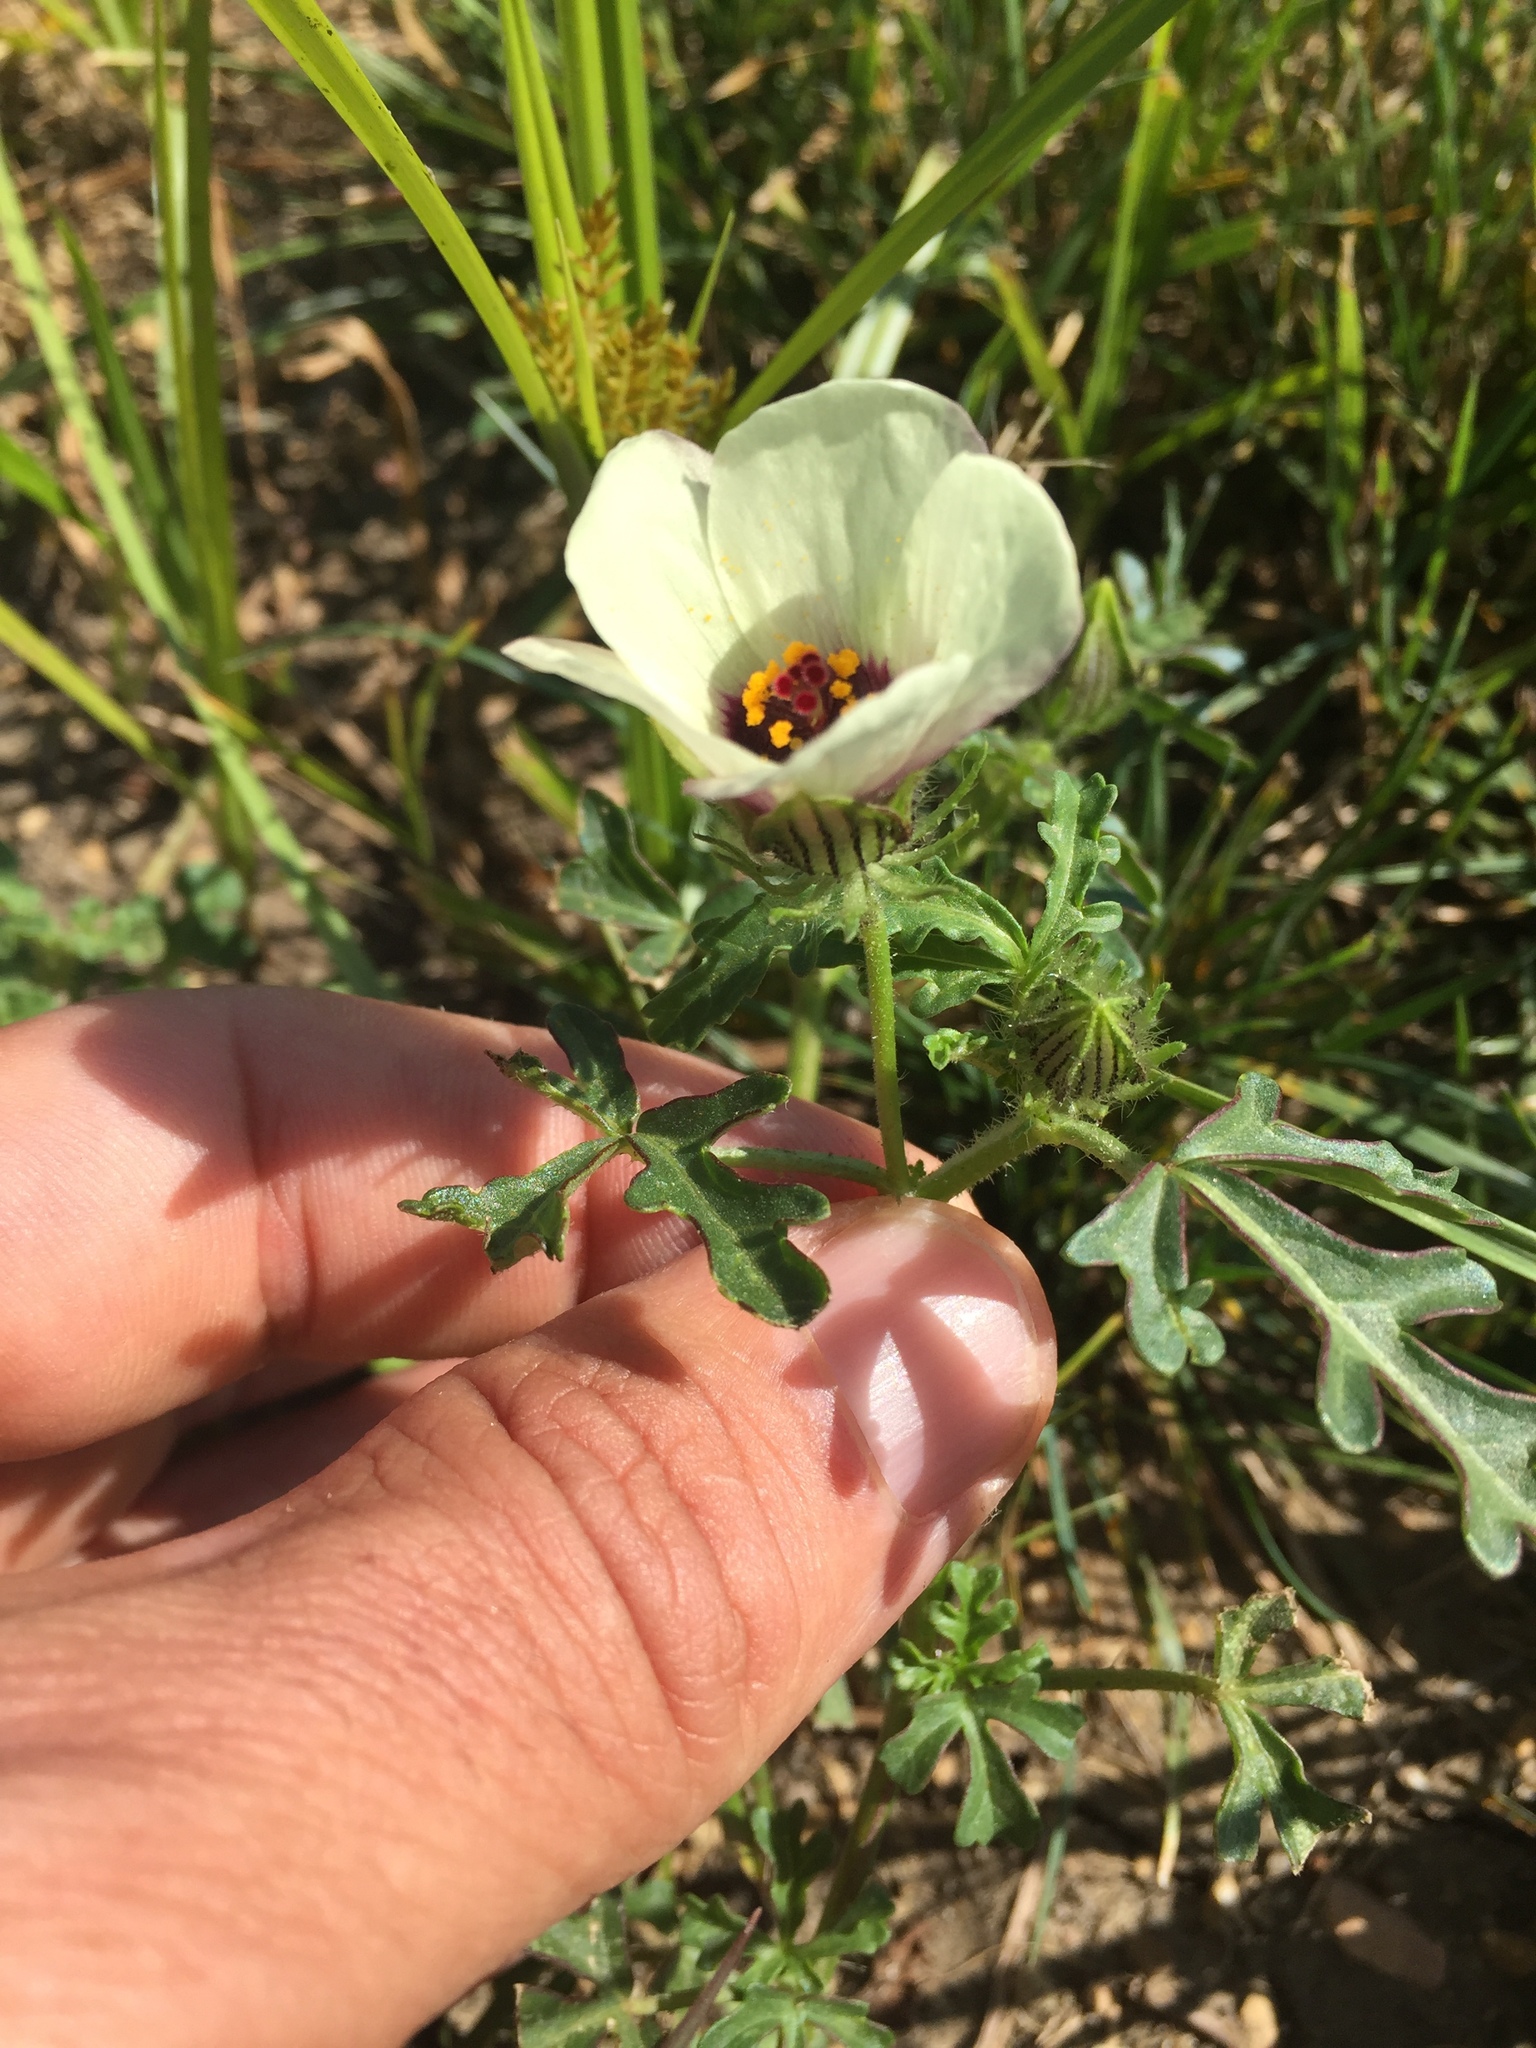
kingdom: Plantae
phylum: Tracheophyta
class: Magnoliopsida
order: Malvales
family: Malvaceae
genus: Hibiscus
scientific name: Hibiscus trionum
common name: Bladder ketmia
